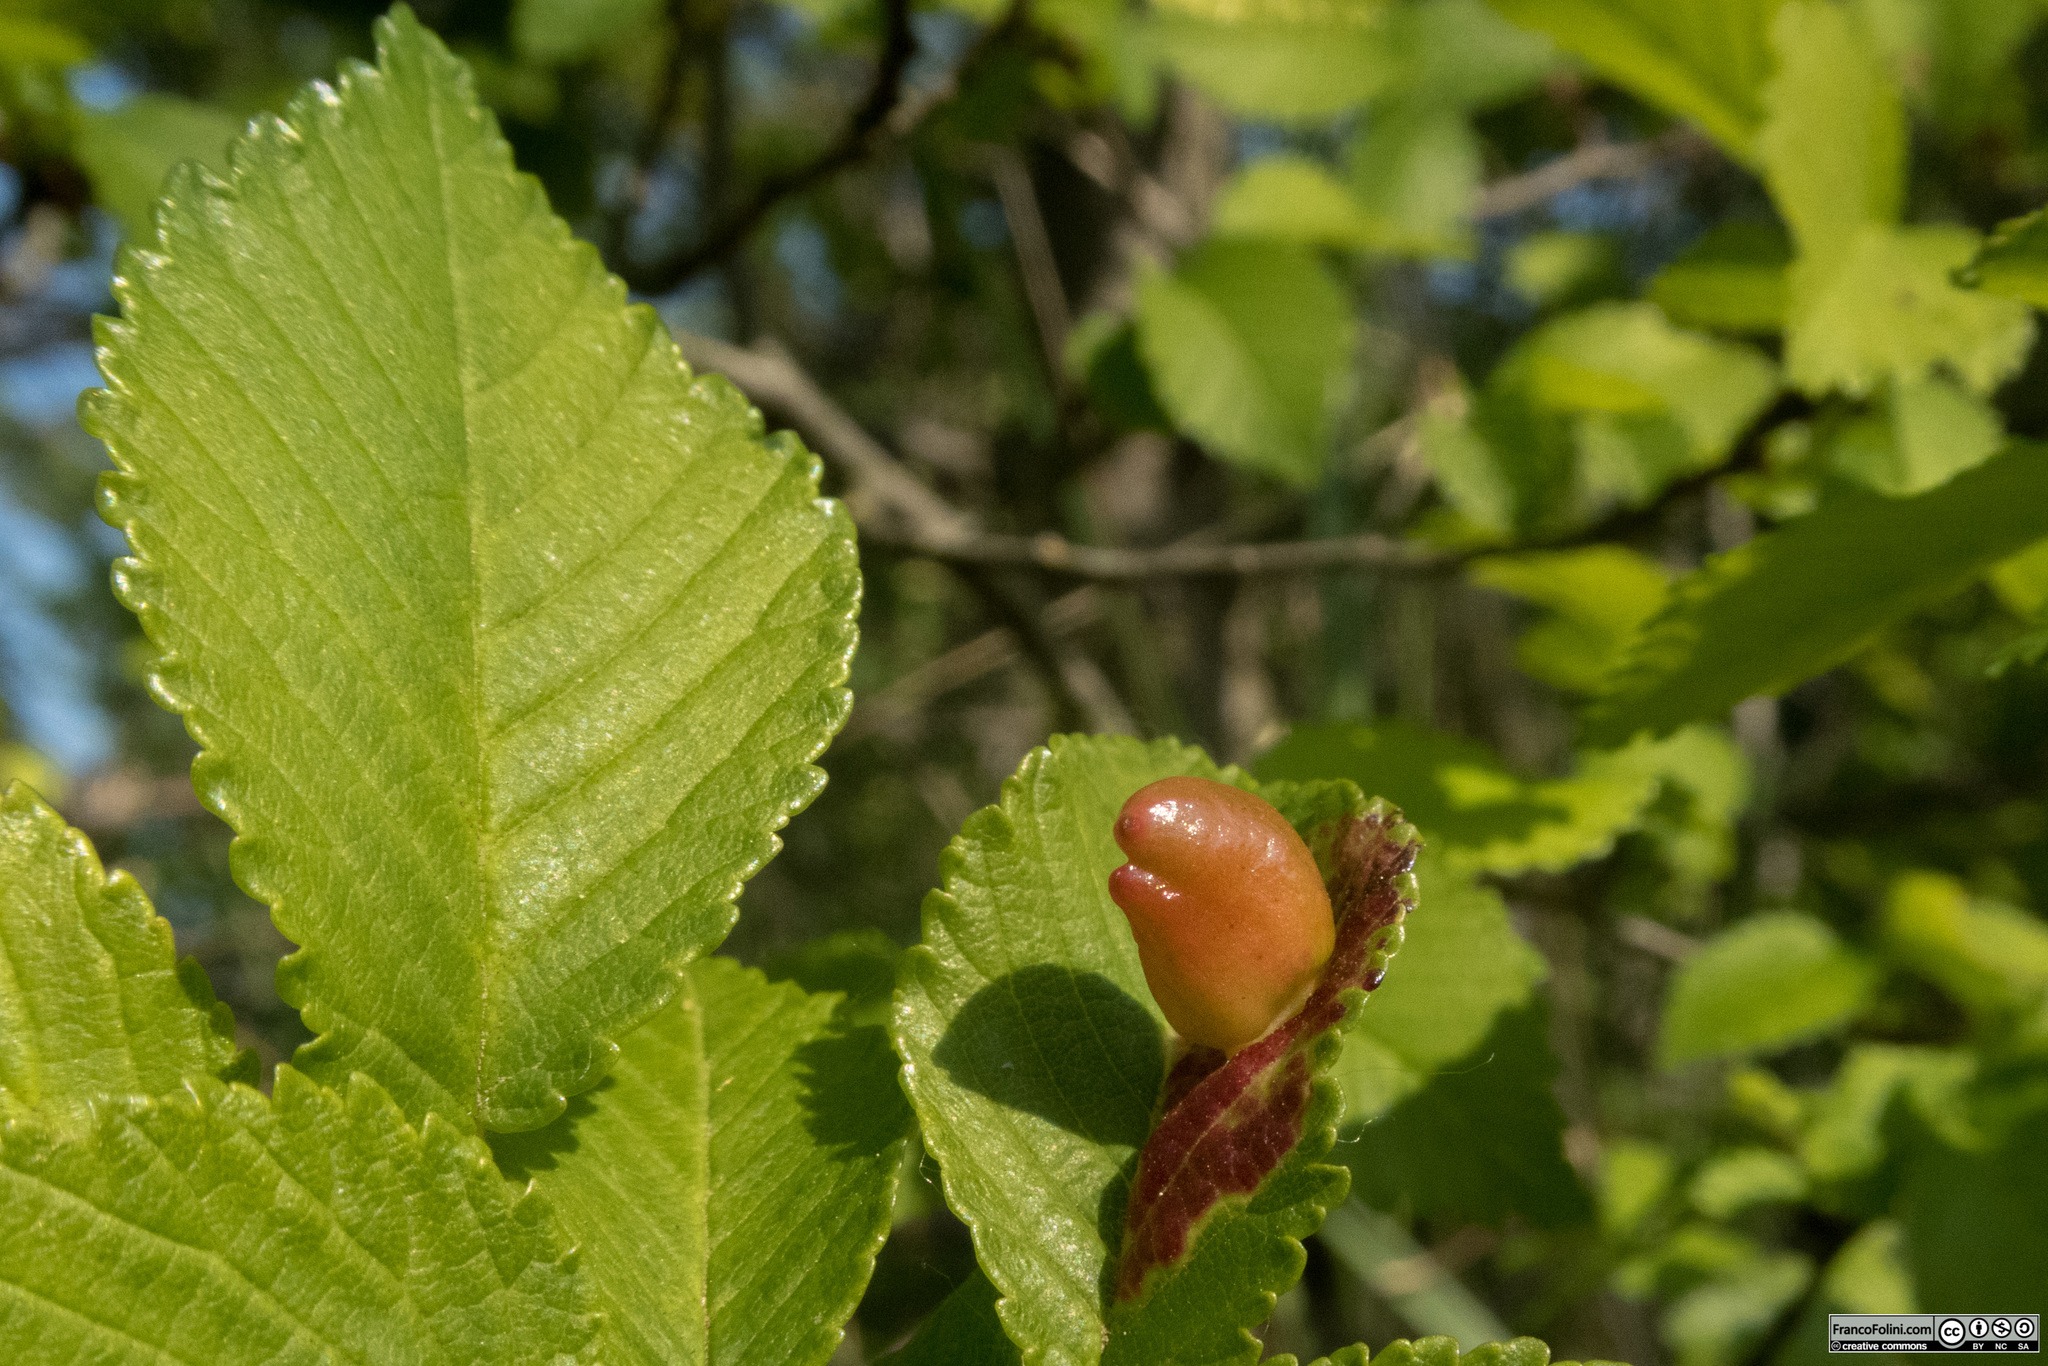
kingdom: Animalia
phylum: Arthropoda
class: Insecta
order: Hemiptera
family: Aphididae
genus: Tetraneura
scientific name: Tetraneura ulmi
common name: Aphid
